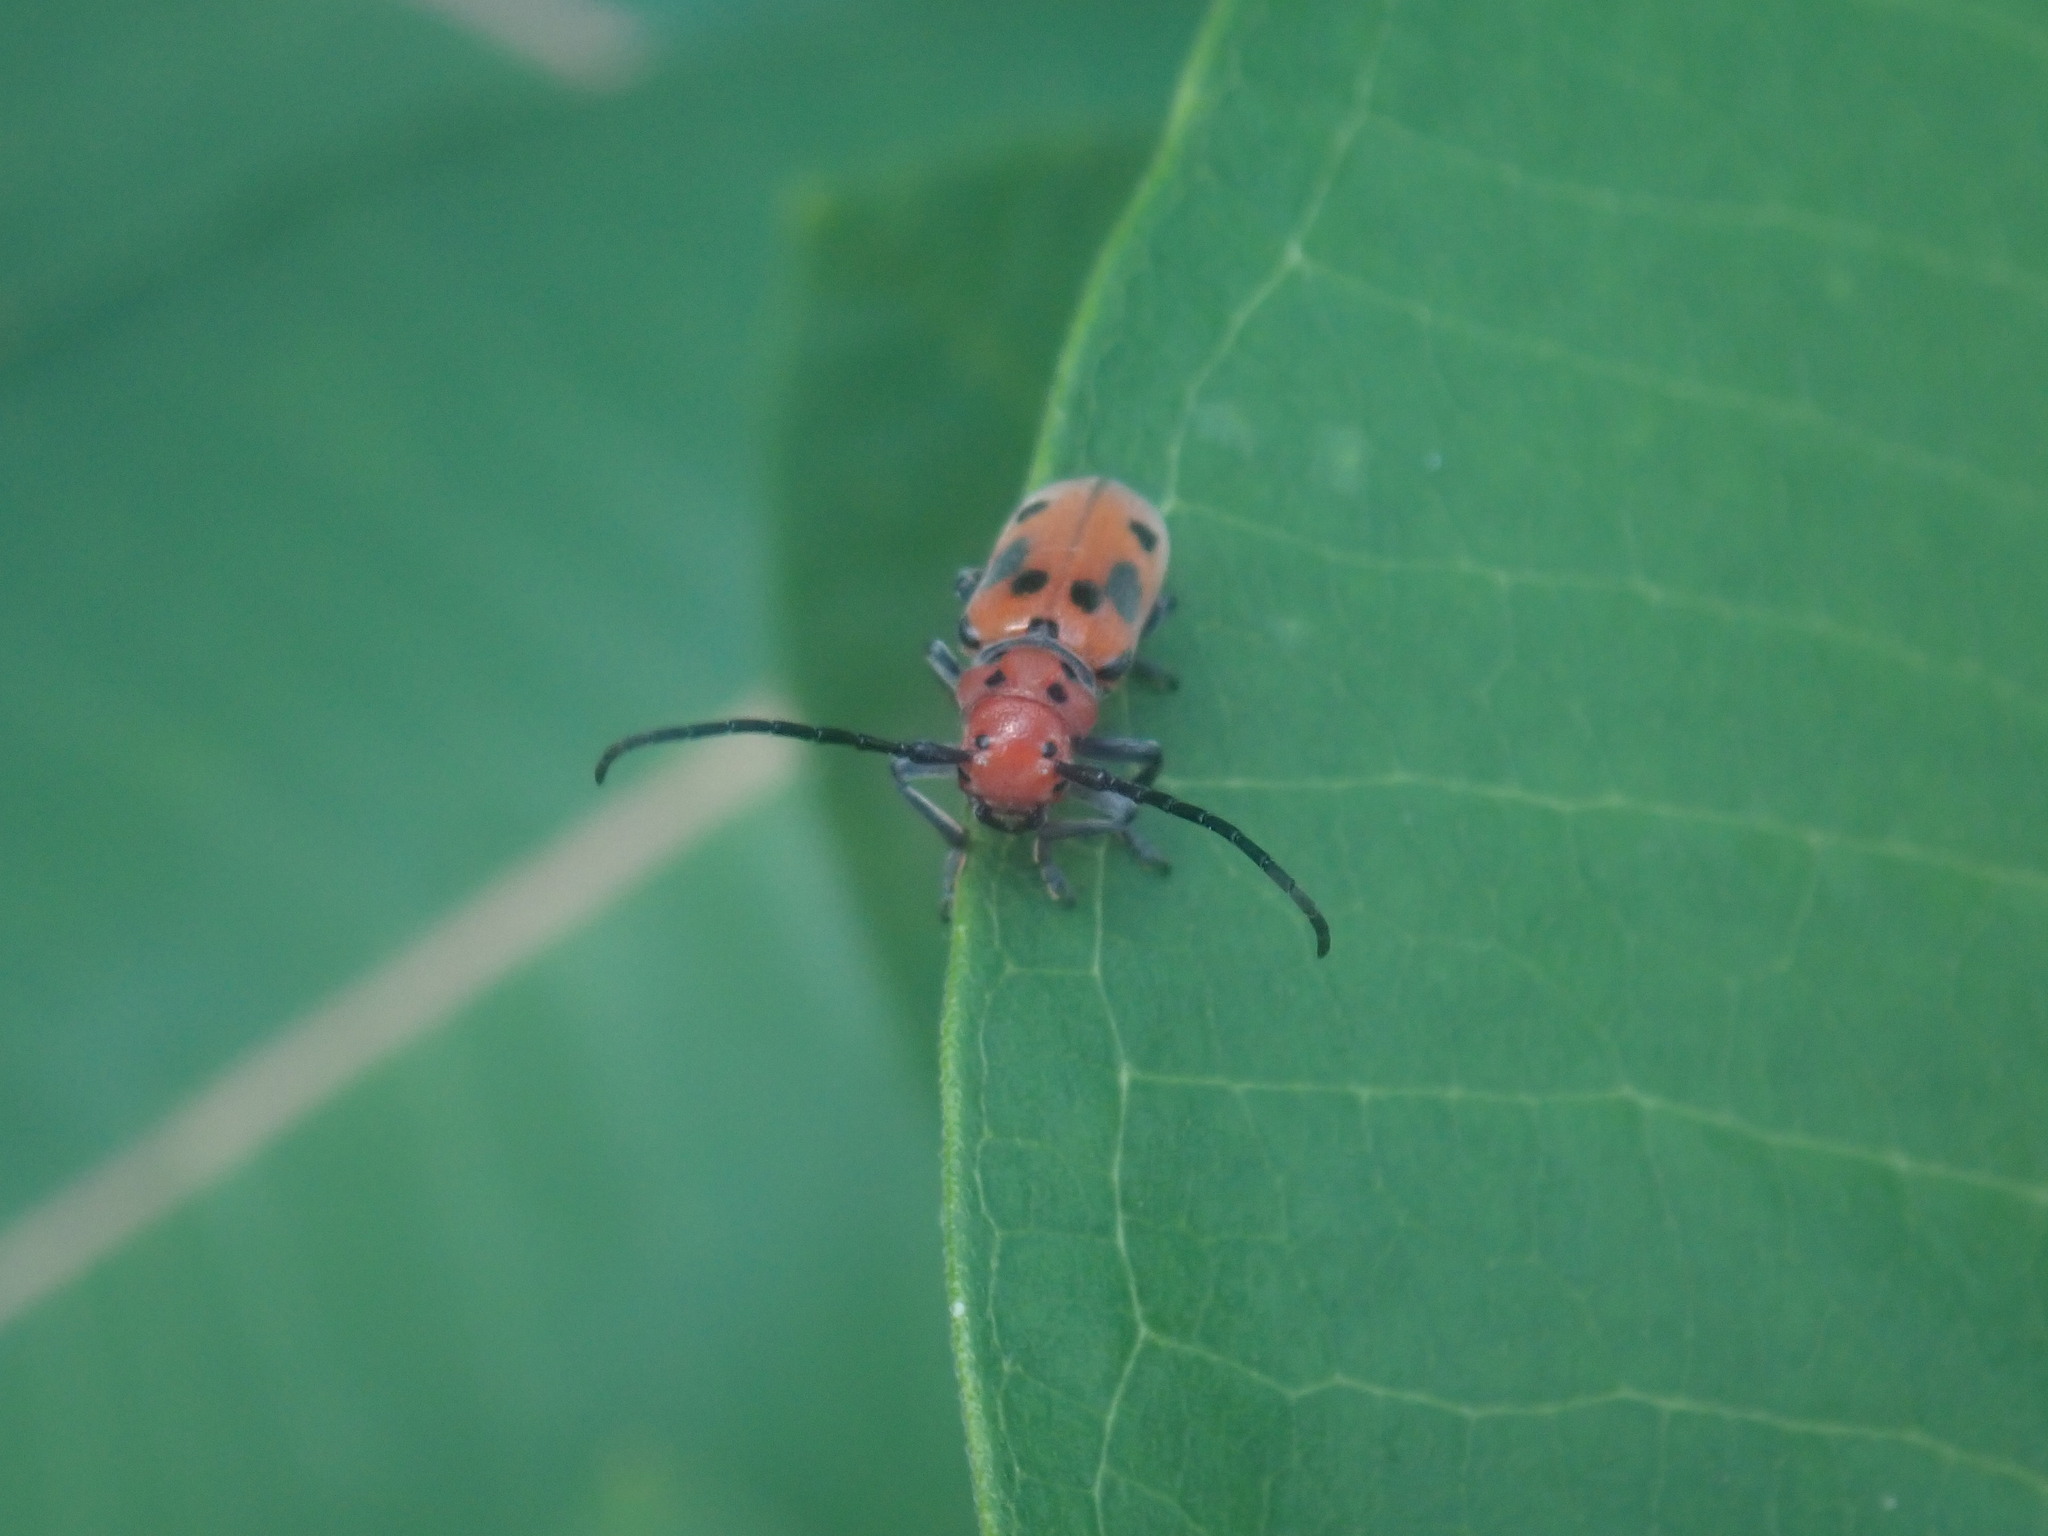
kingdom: Animalia
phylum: Arthropoda
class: Insecta
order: Coleoptera
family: Cerambycidae
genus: Tetraopes
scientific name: Tetraopes tetrophthalmus
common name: Red milkweed beetle
